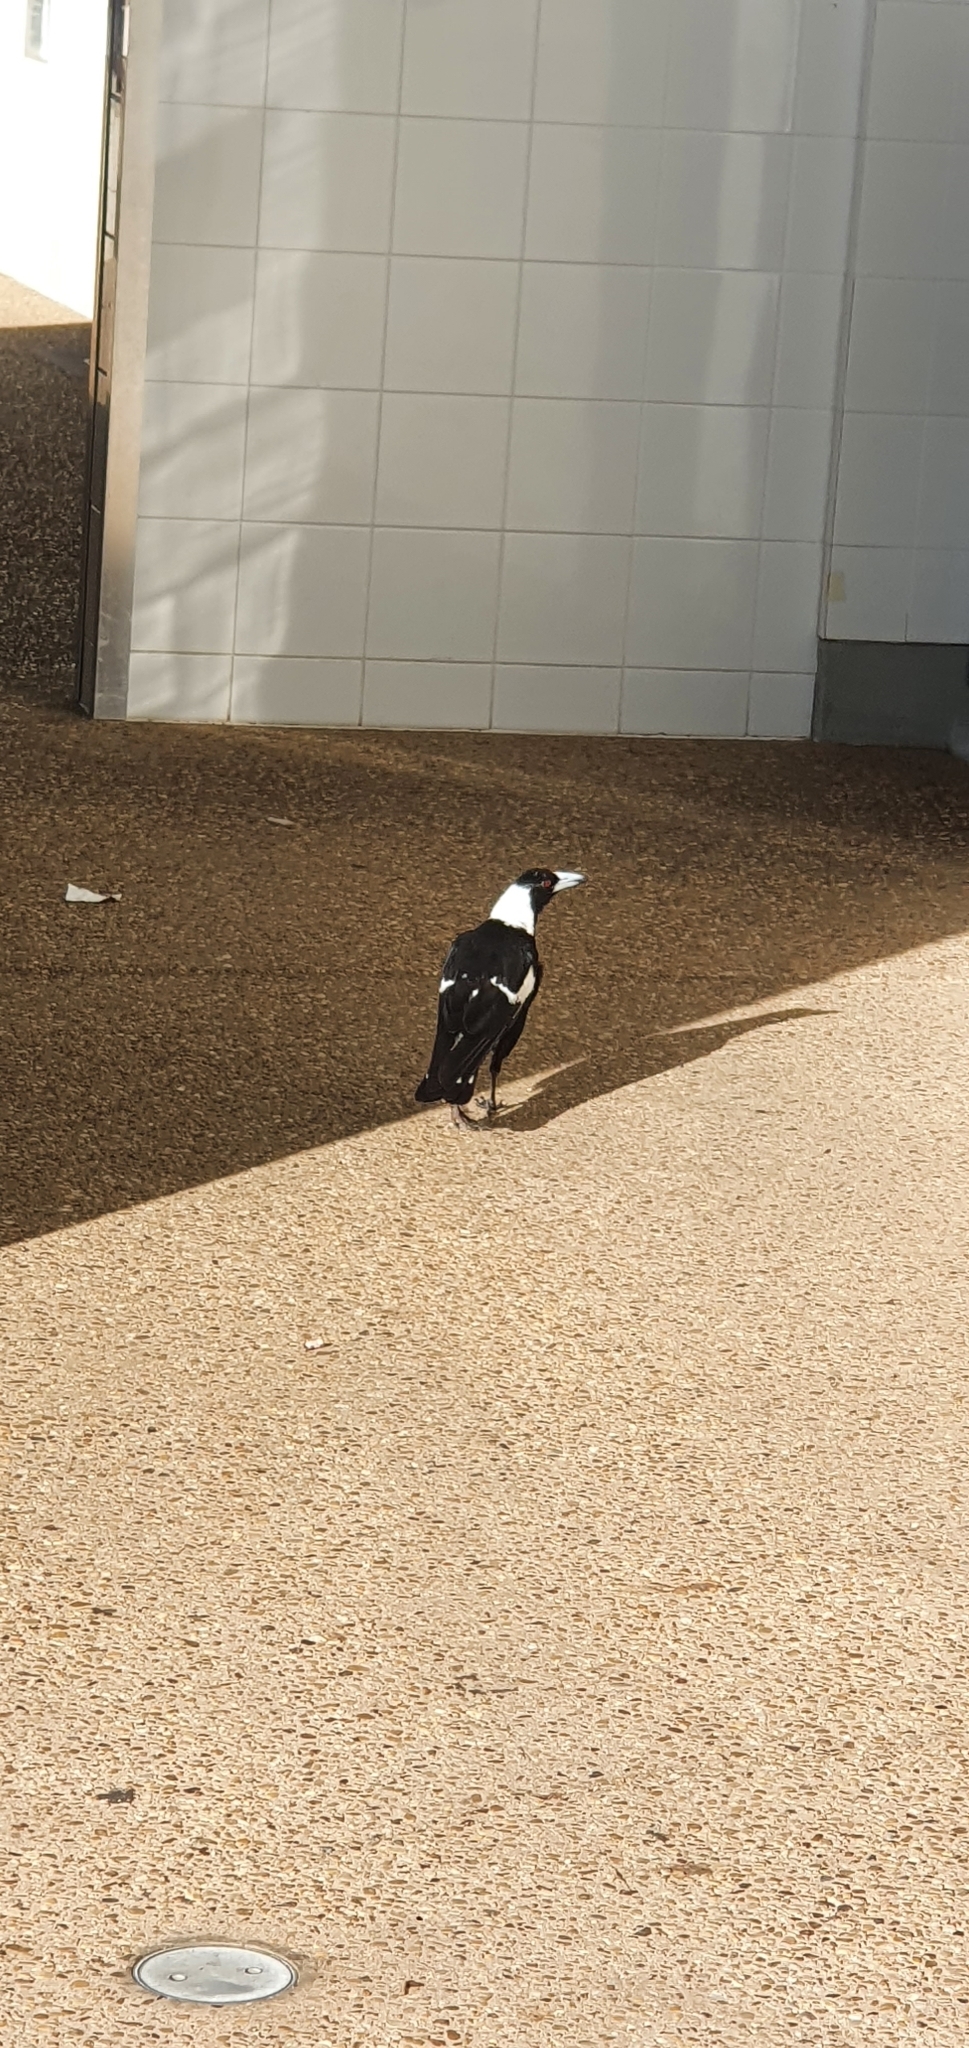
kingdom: Animalia
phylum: Chordata
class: Aves
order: Passeriformes
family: Cracticidae
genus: Gymnorhina
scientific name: Gymnorhina tibicen
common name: Australian magpie
